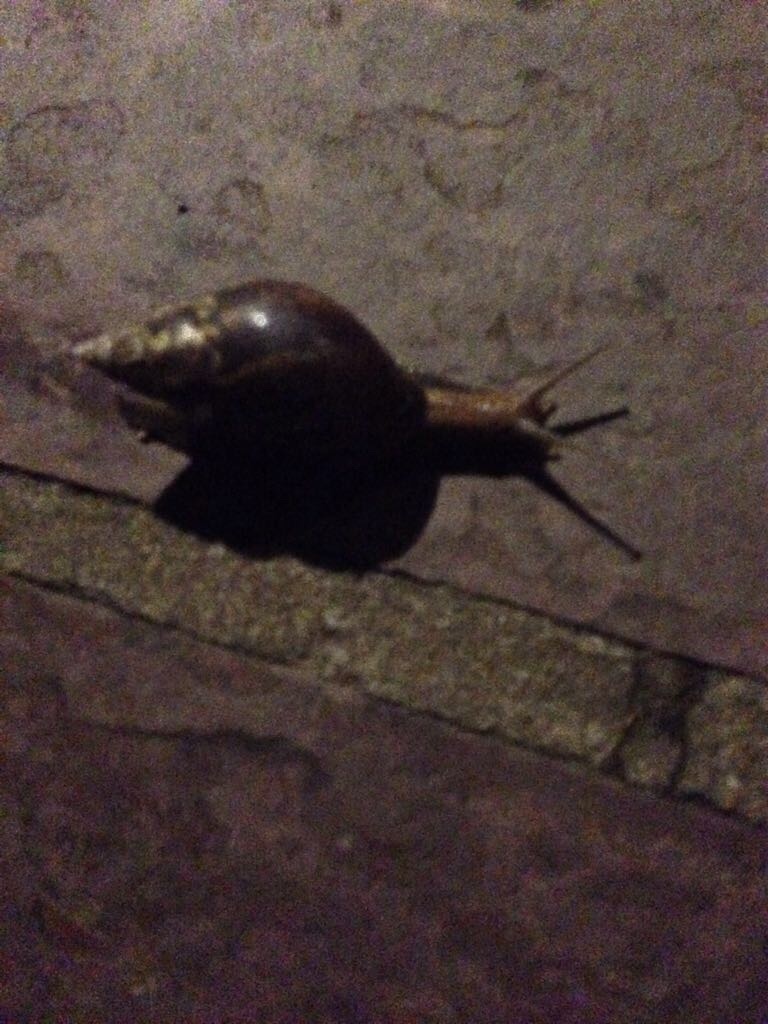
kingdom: Animalia
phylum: Mollusca
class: Gastropoda
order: Stylommatophora
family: Achatinidae
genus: Lissachatina
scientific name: Lissachatina fulica
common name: Giant african snail
